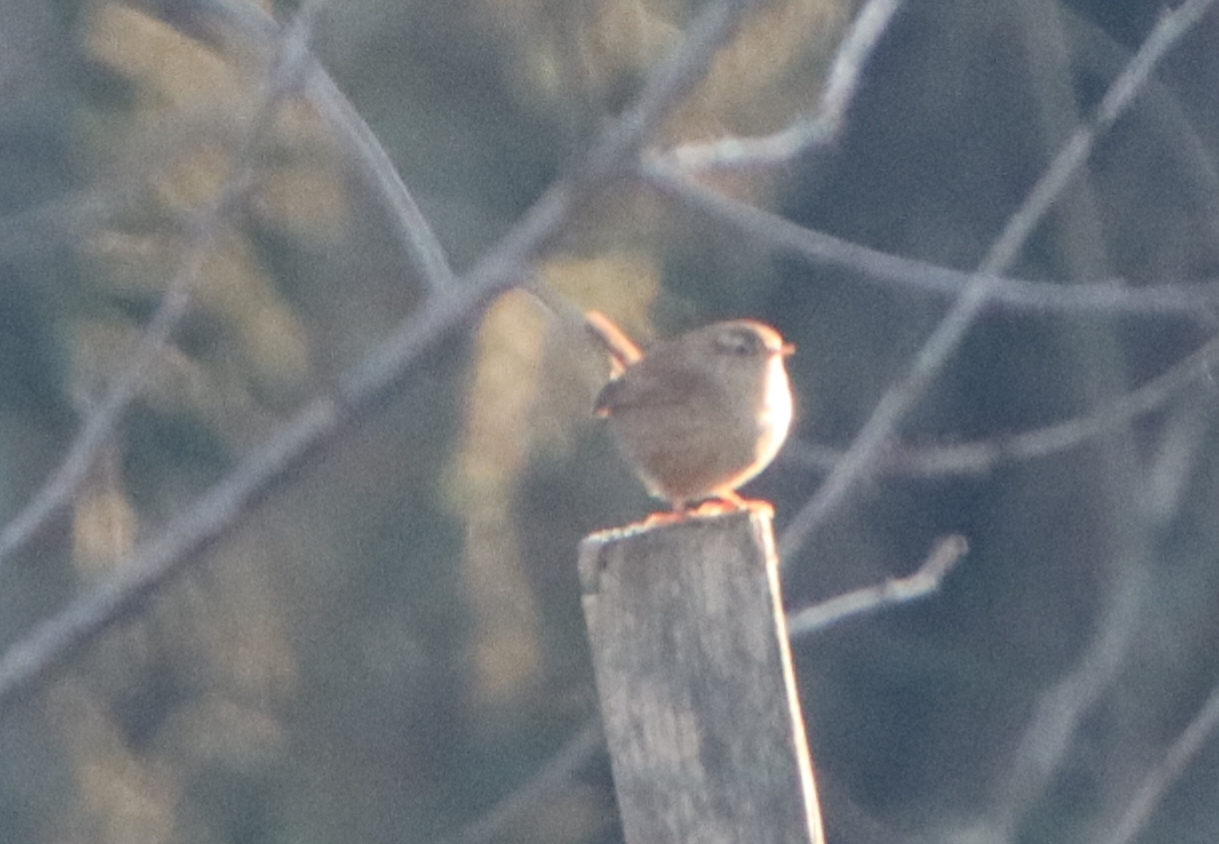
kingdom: Animalia
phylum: Chordata
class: Aves
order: Passeriformes
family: Troglodytidae
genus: Troglodytes
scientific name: Troglodytes troglodytes
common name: Eurasian wren
